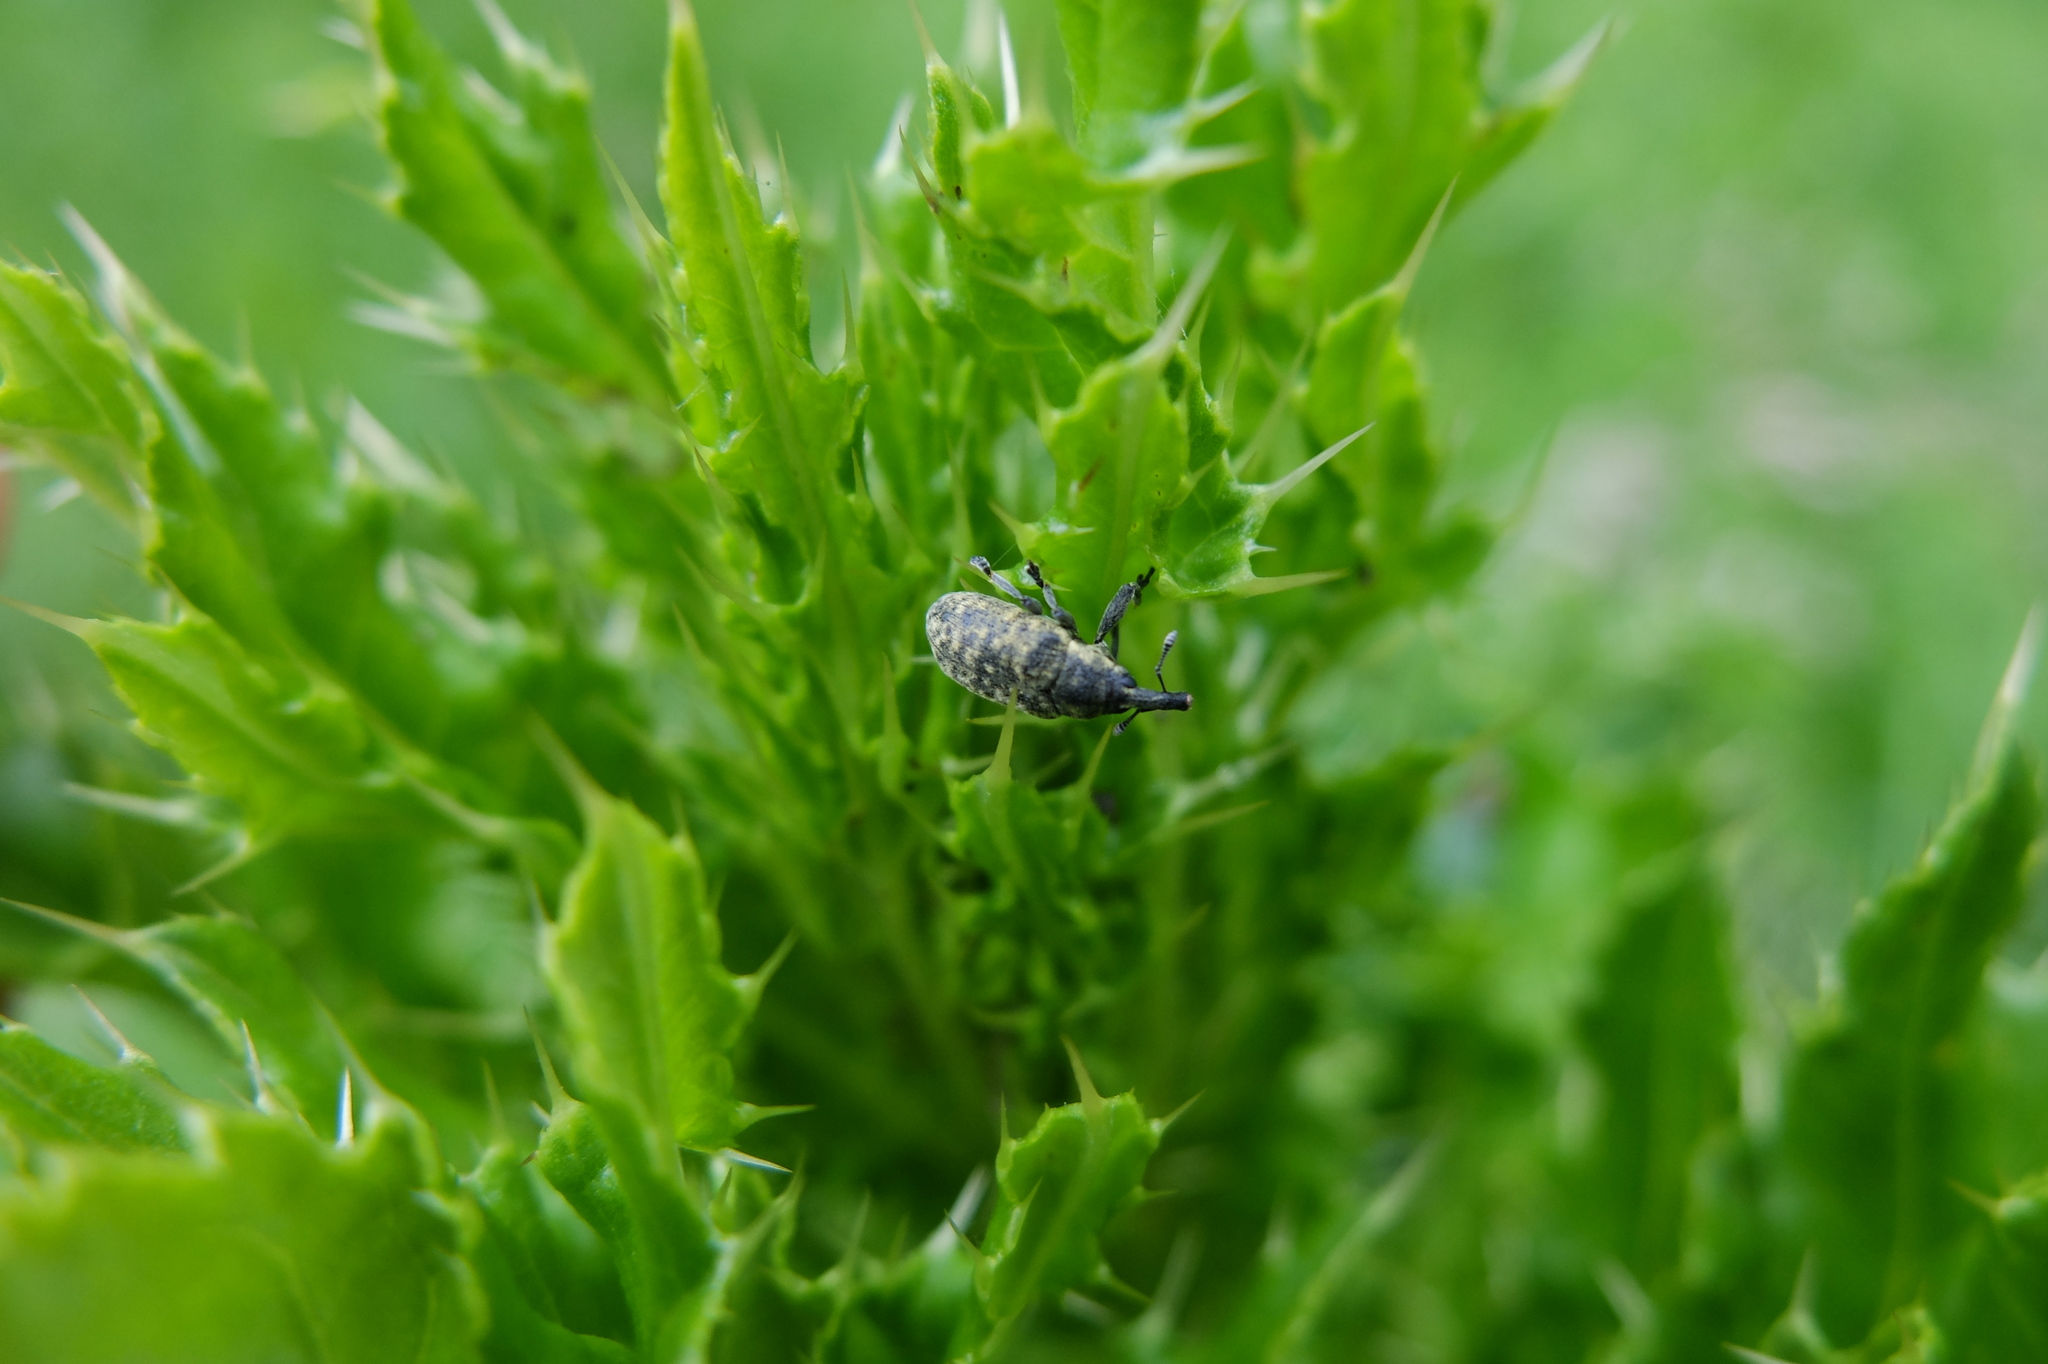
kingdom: Animalia
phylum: Arthropoda
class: Insecta
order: Coleoptera
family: Curculionidae
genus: Larinus
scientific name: Larinus carlinae
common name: Weevil
